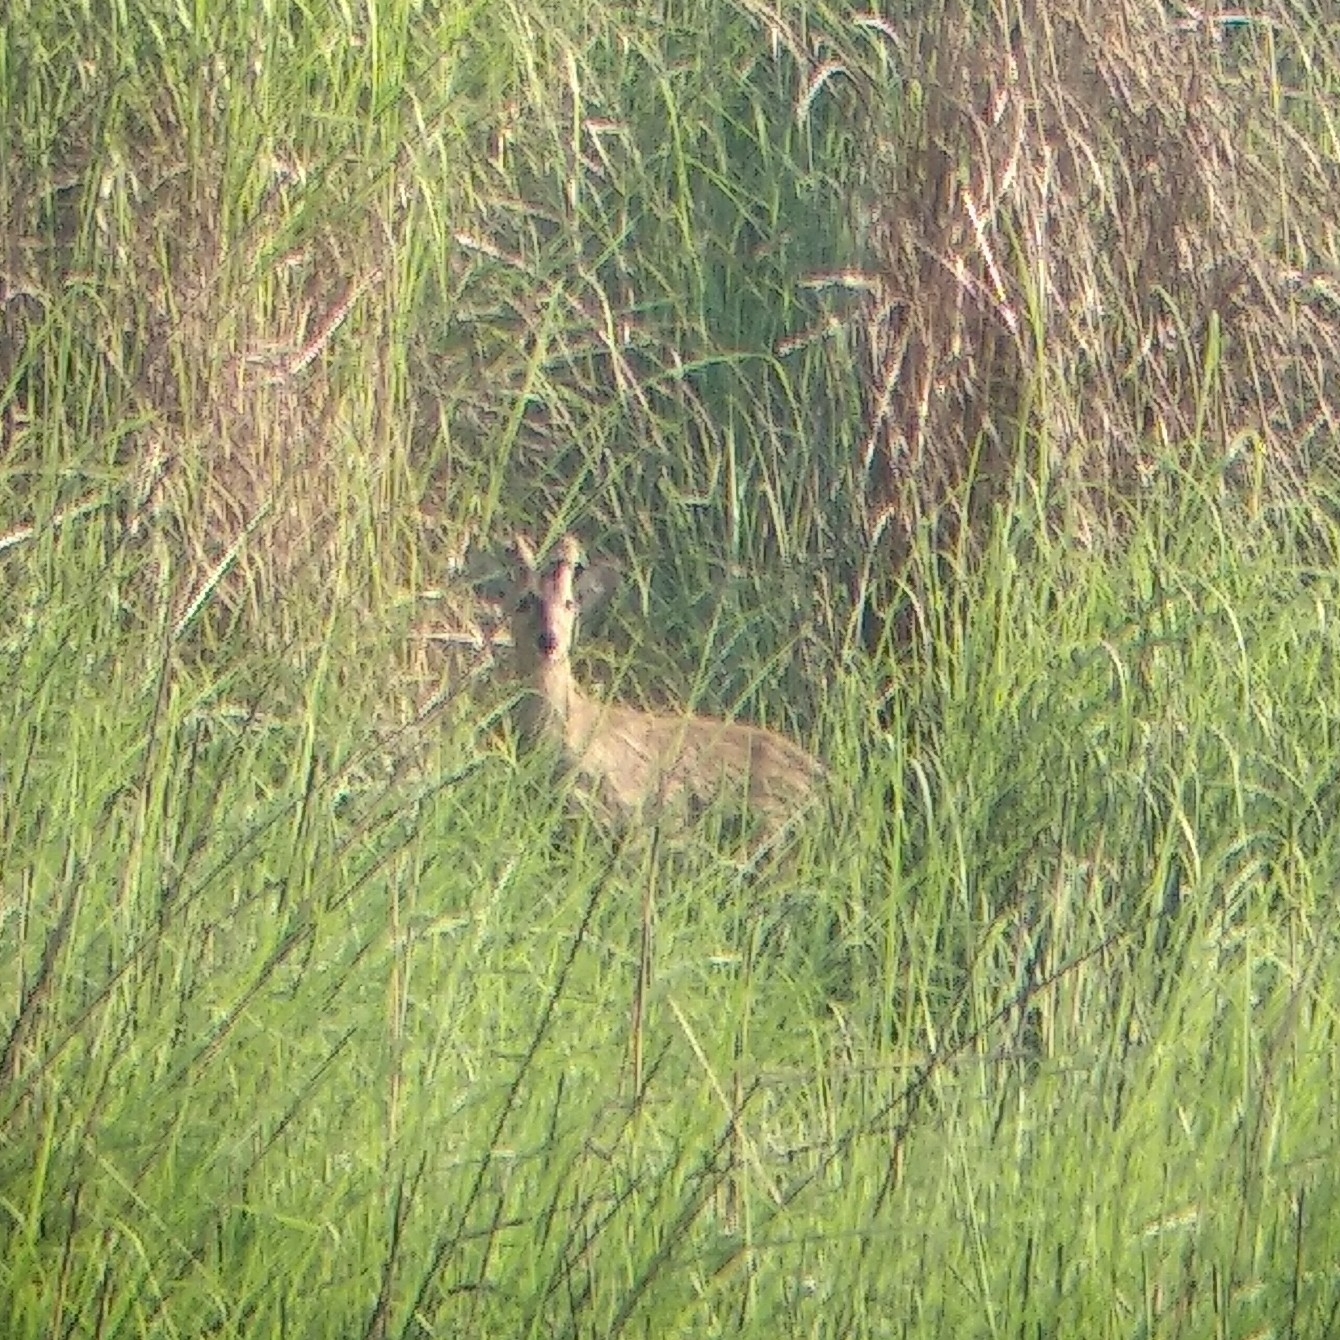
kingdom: Animalia
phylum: Chordata
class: Mammalia
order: Artiodactyla
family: Cervidae
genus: Axis
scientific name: Axis porcinus
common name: Hog deer
